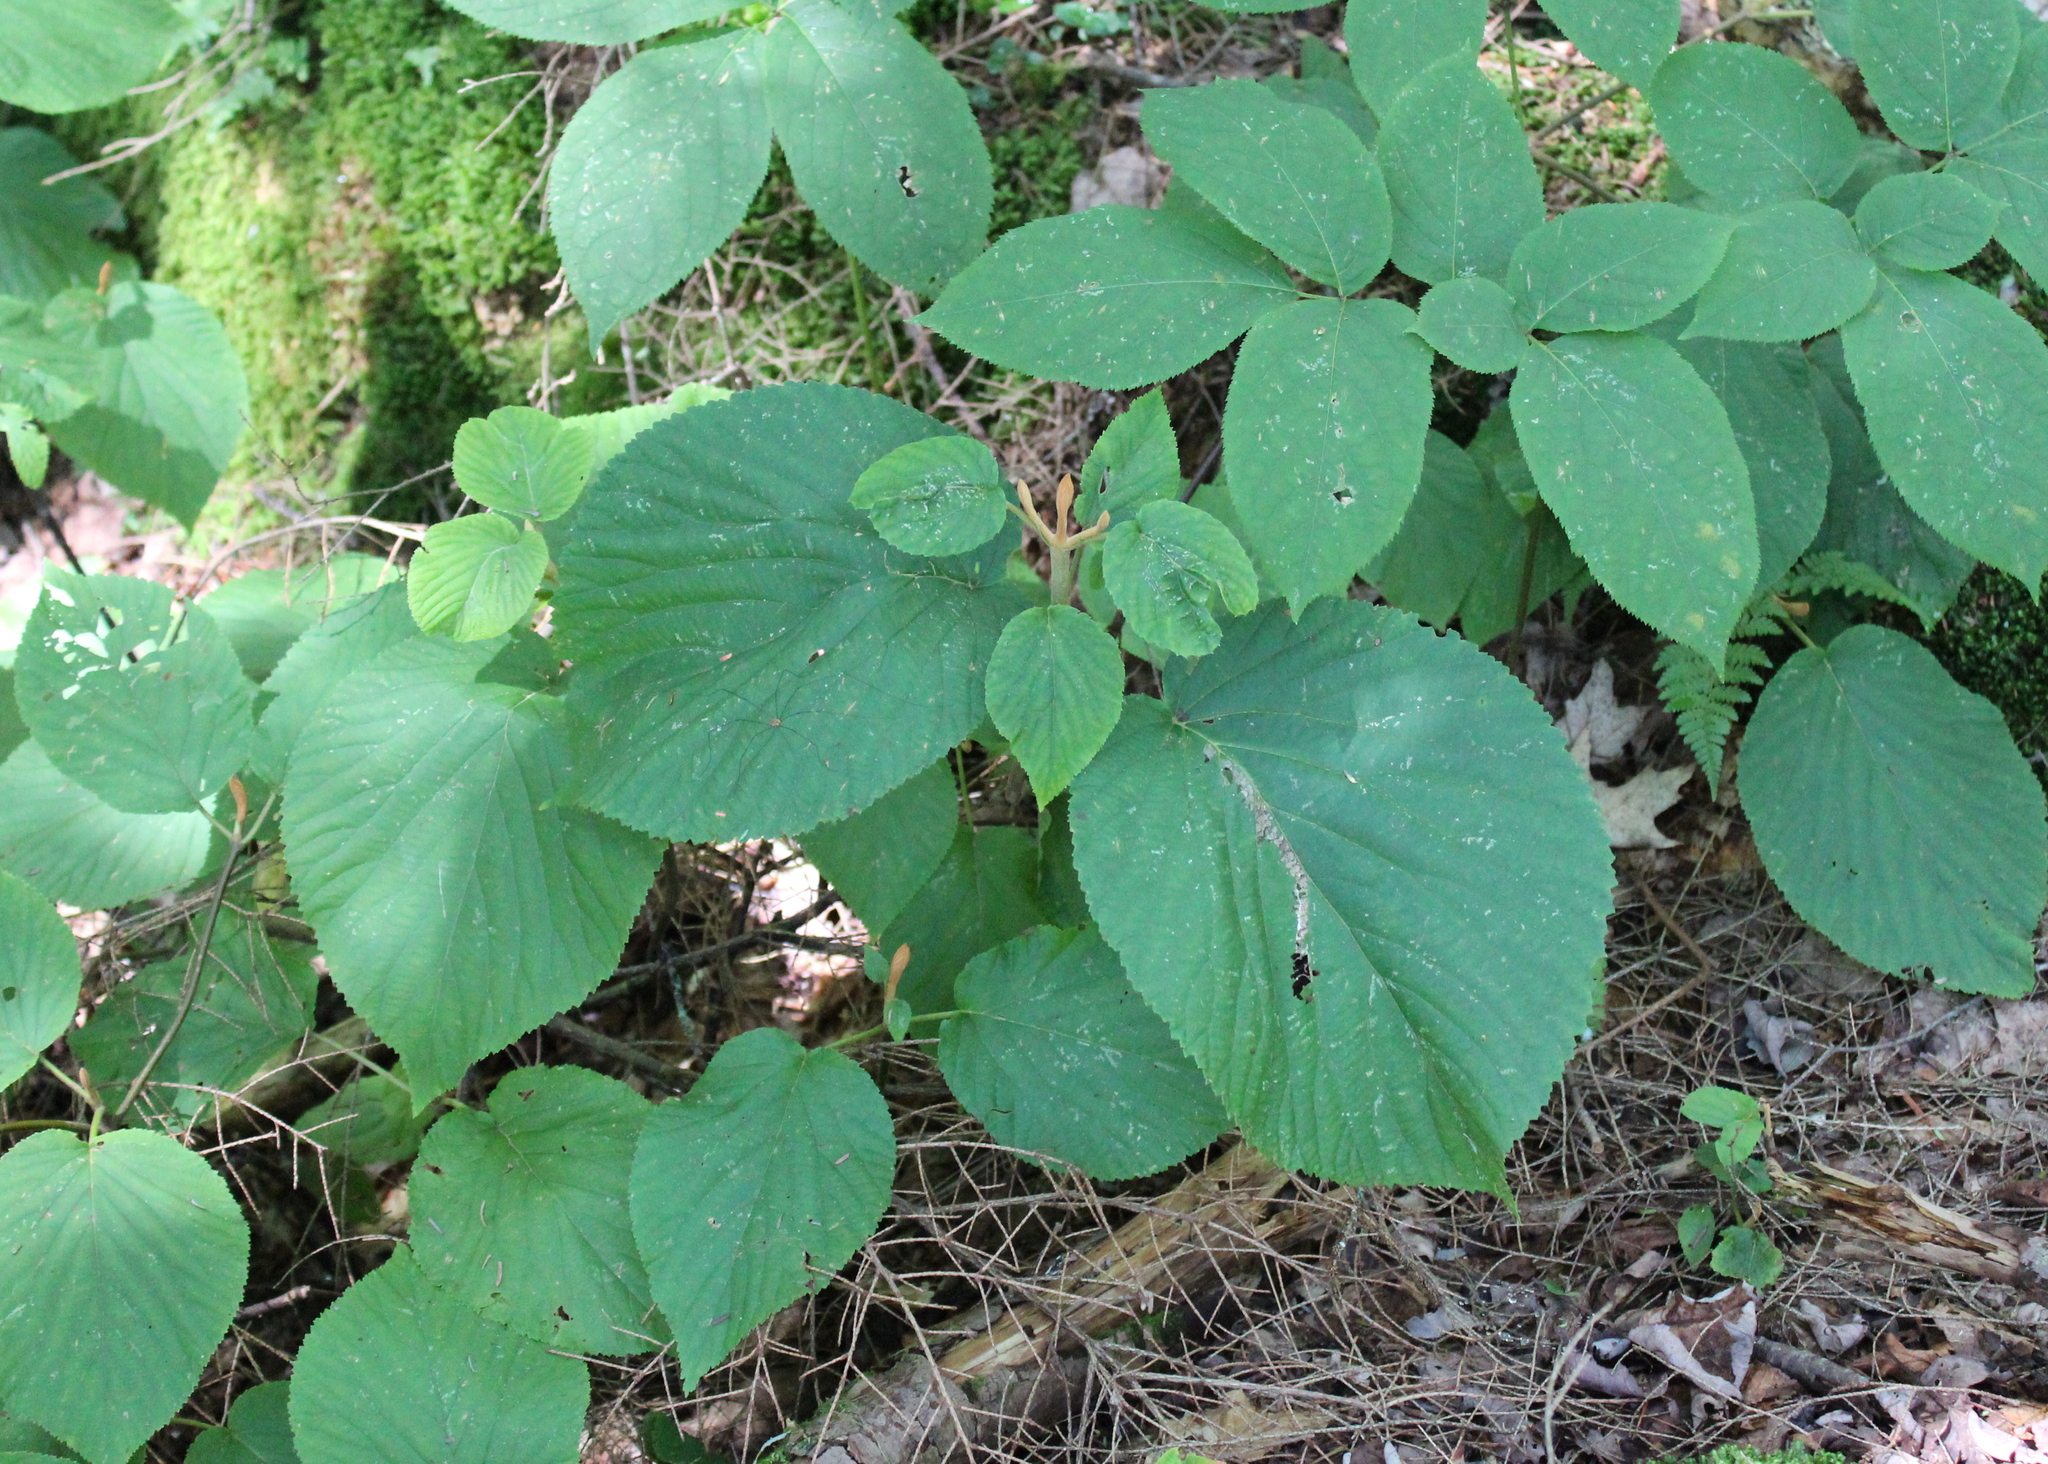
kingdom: Plantae
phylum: Tracheophyta
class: Magnoliopsida
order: Dipsacales
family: Viburnaceae
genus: Viburnum
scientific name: Viburnum lantanoides
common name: Hobblebush
